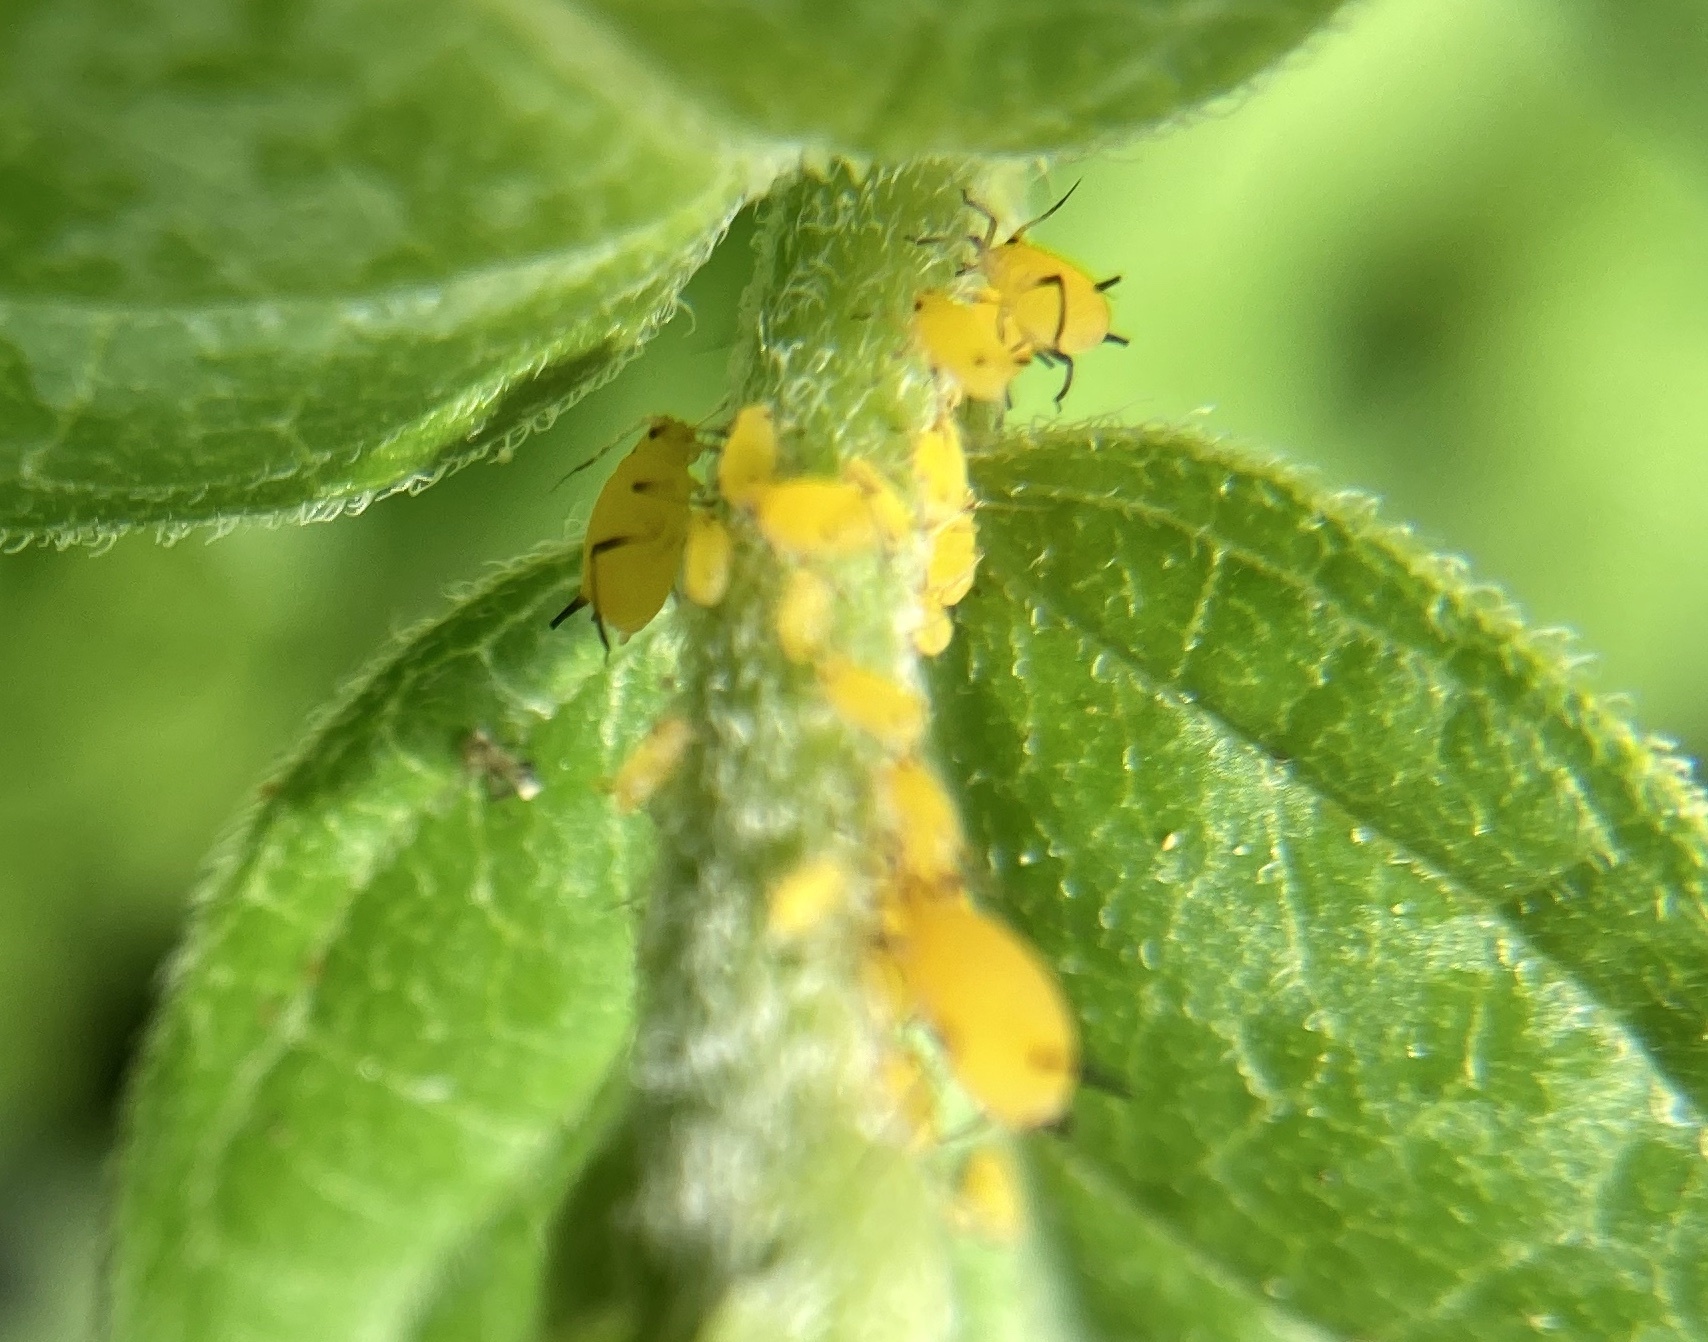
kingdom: Animalia
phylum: Arthropoda
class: Insecta
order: Hemiptera
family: Aphididae
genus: Aphis
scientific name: Aphis nerii
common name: Oleander aphid
